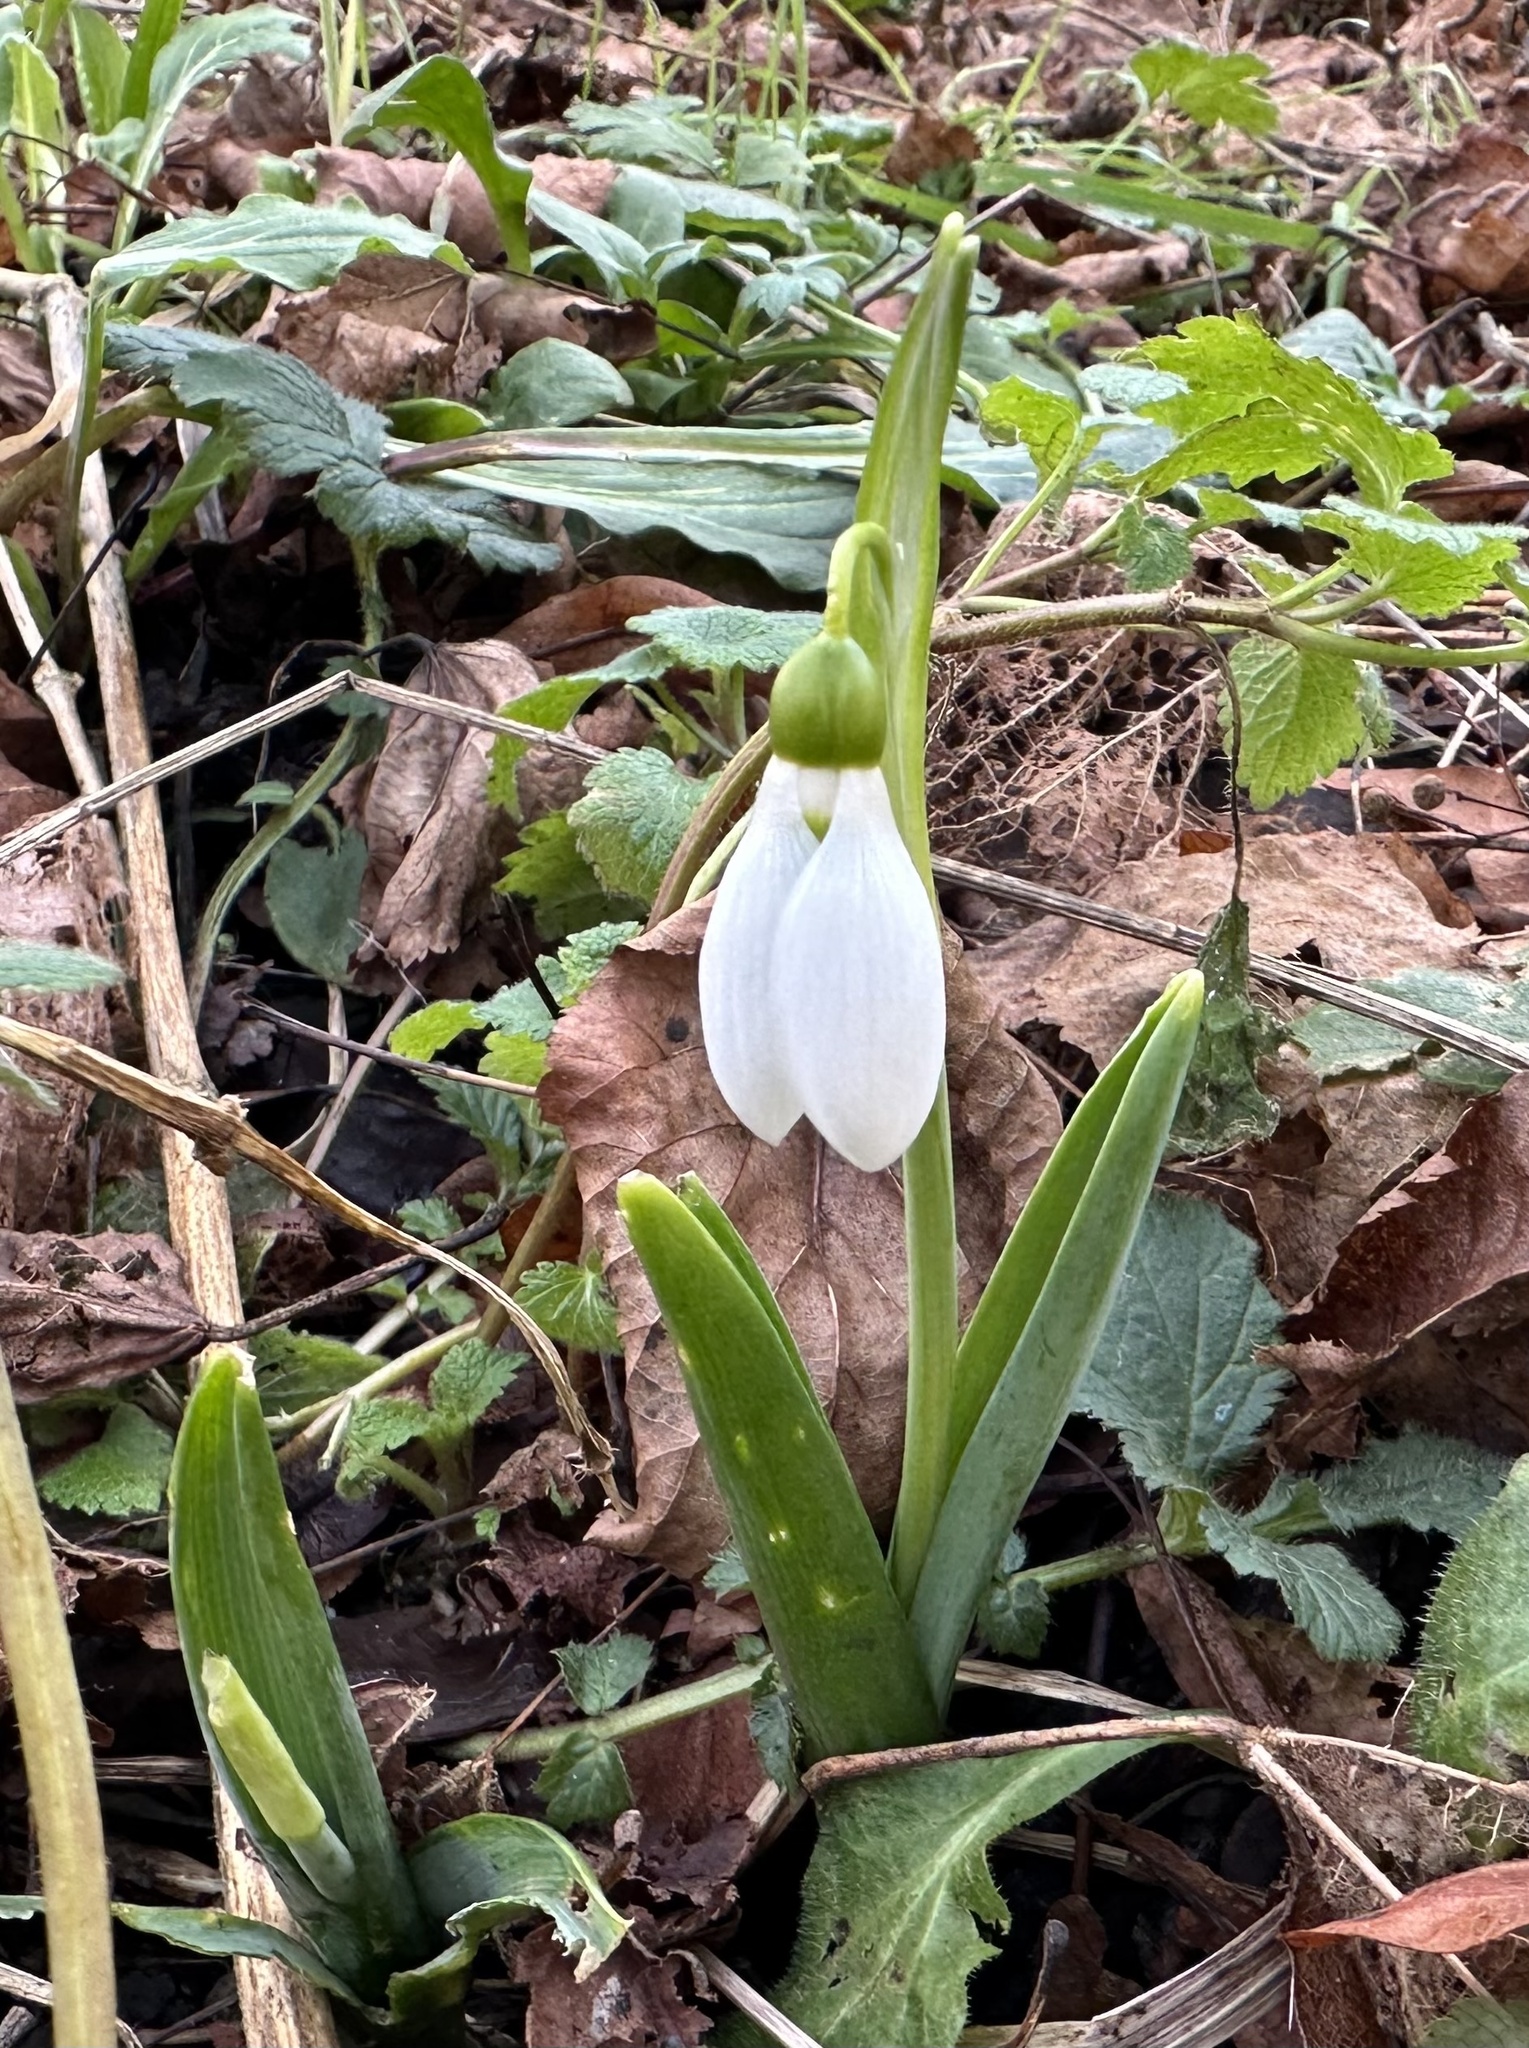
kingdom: Plantae
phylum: Tracheophyta
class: Liliopsida
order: Asparagales
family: Amaryllidaceae
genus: Galanthus
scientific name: Galanthus elwesii
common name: Greater snowdrop
